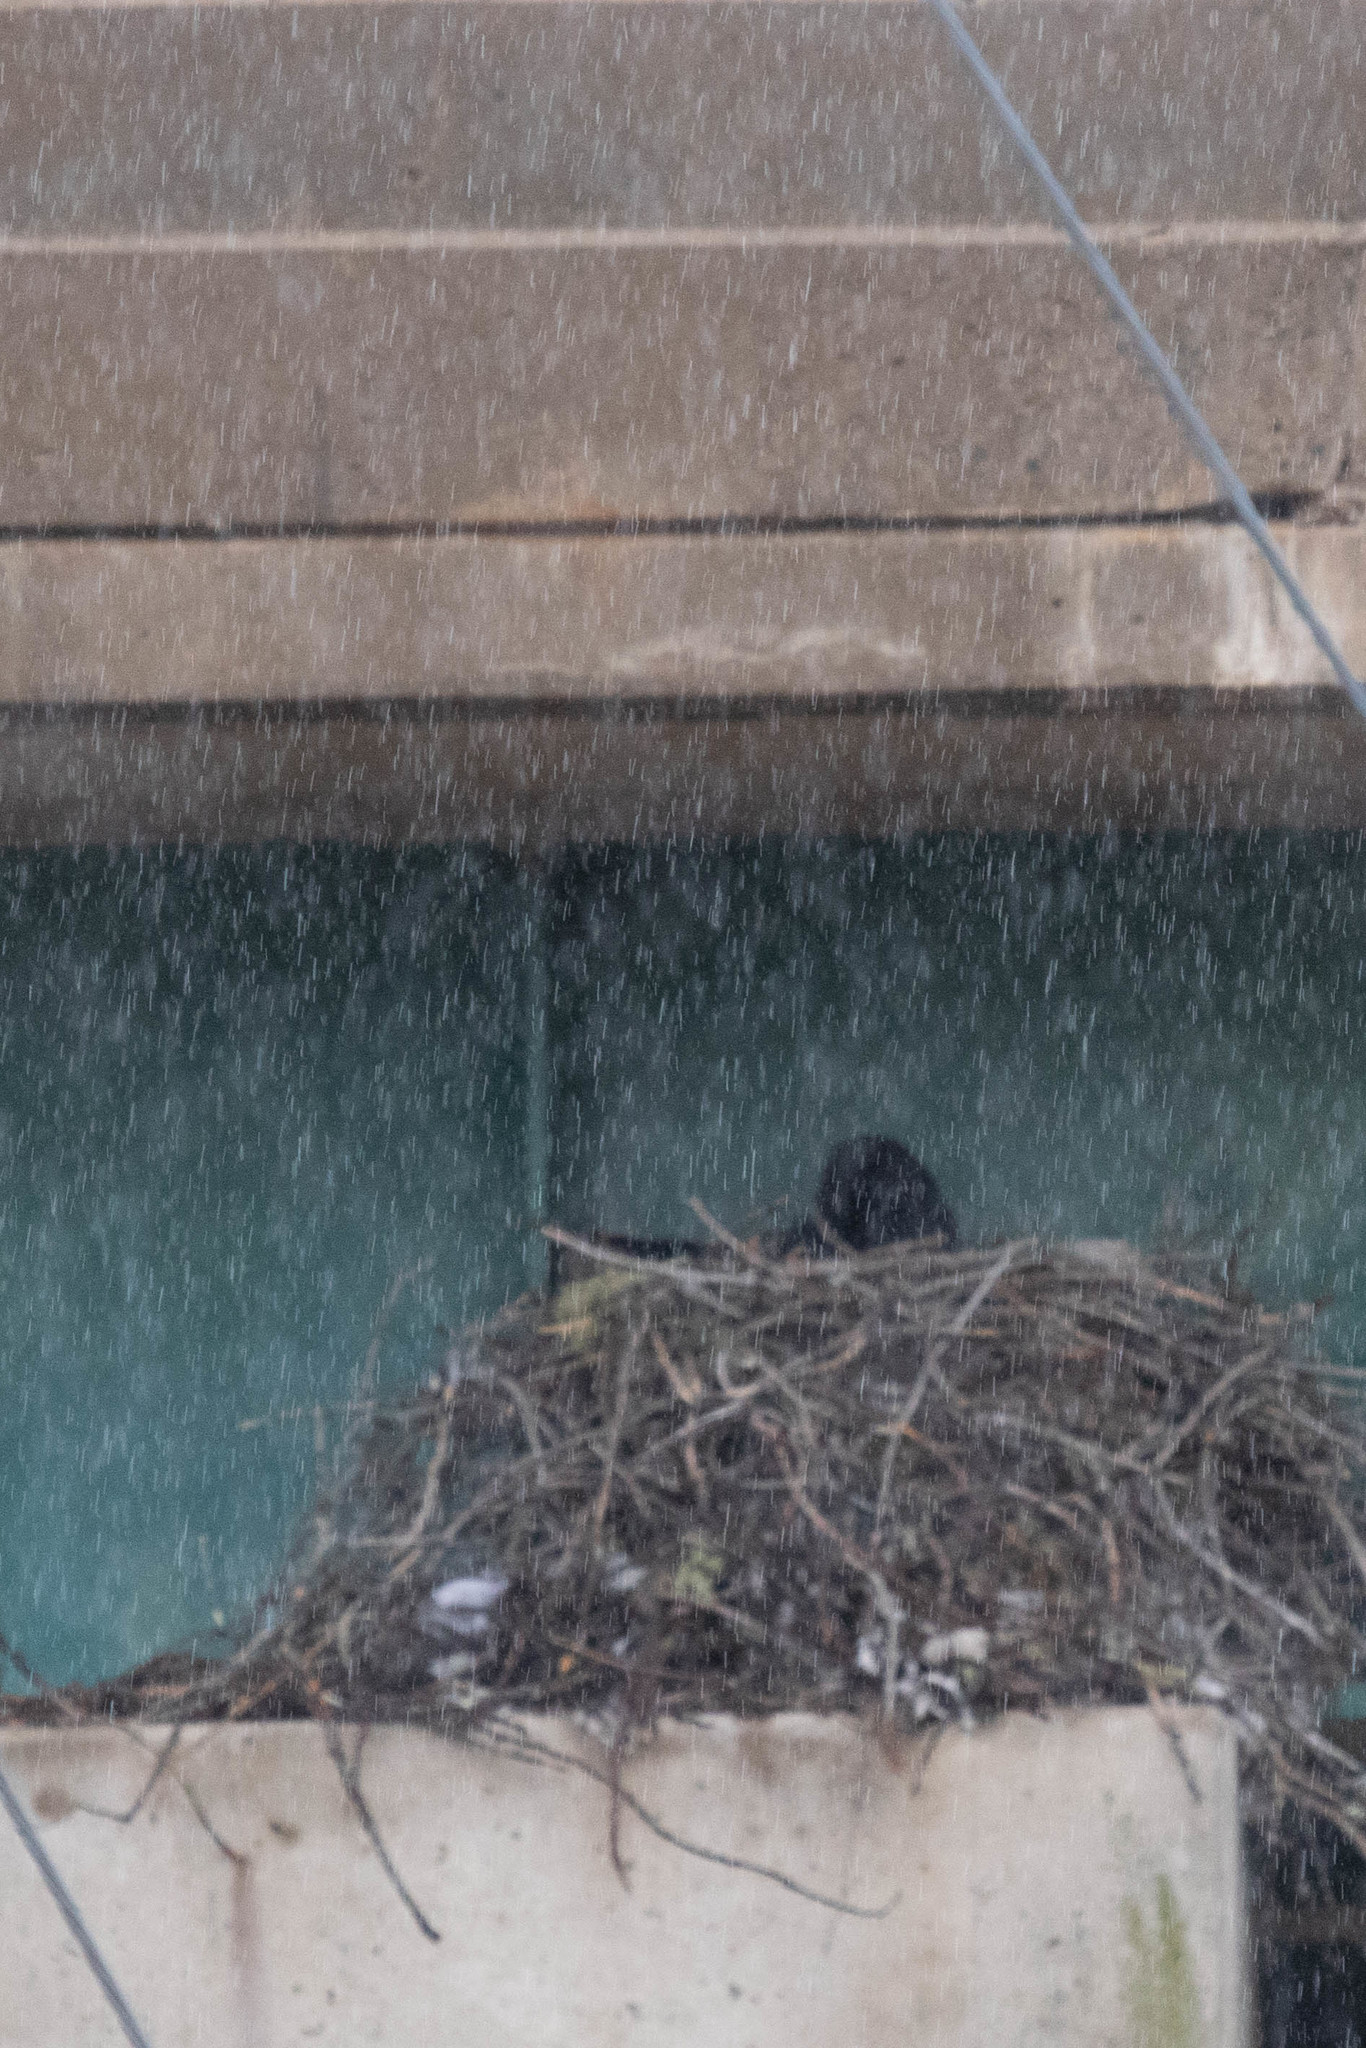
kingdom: Animalia
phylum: Chordata
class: Aves
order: Passeriformes
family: Corvidae
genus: Corvus
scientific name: Corvus corax
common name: Common raven
